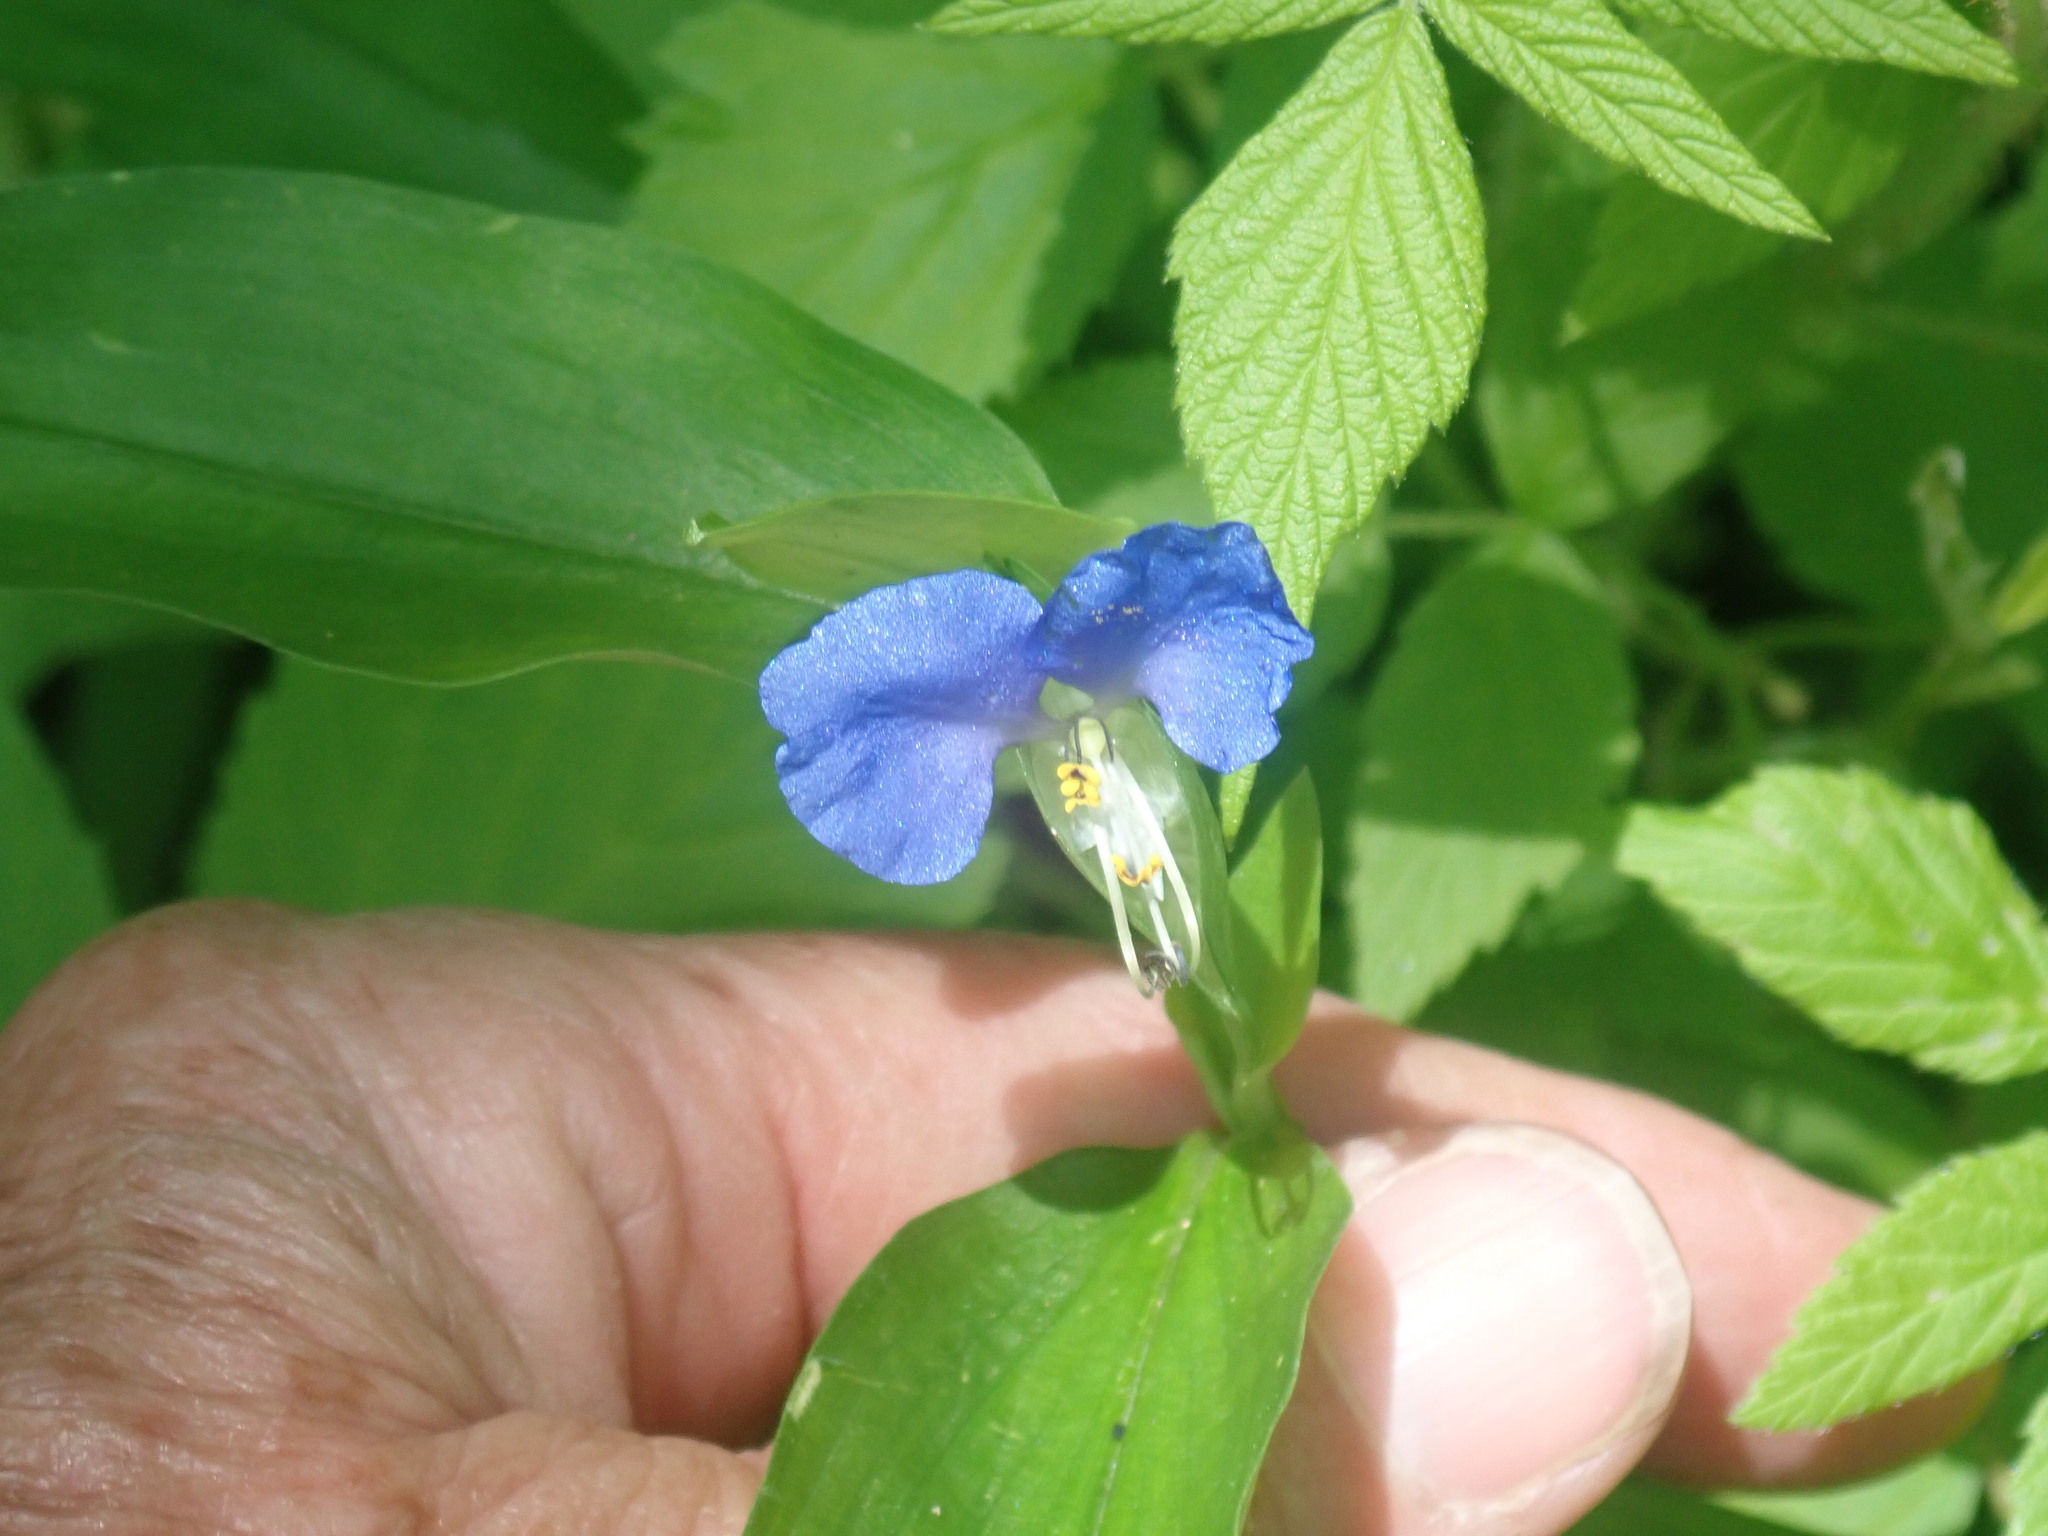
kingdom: Plantae
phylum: Tracheophyta
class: Liliopsida
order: Commelinales
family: Commelinaceae
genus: Commelina
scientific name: Commelina communis
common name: Asiatic dayflower
